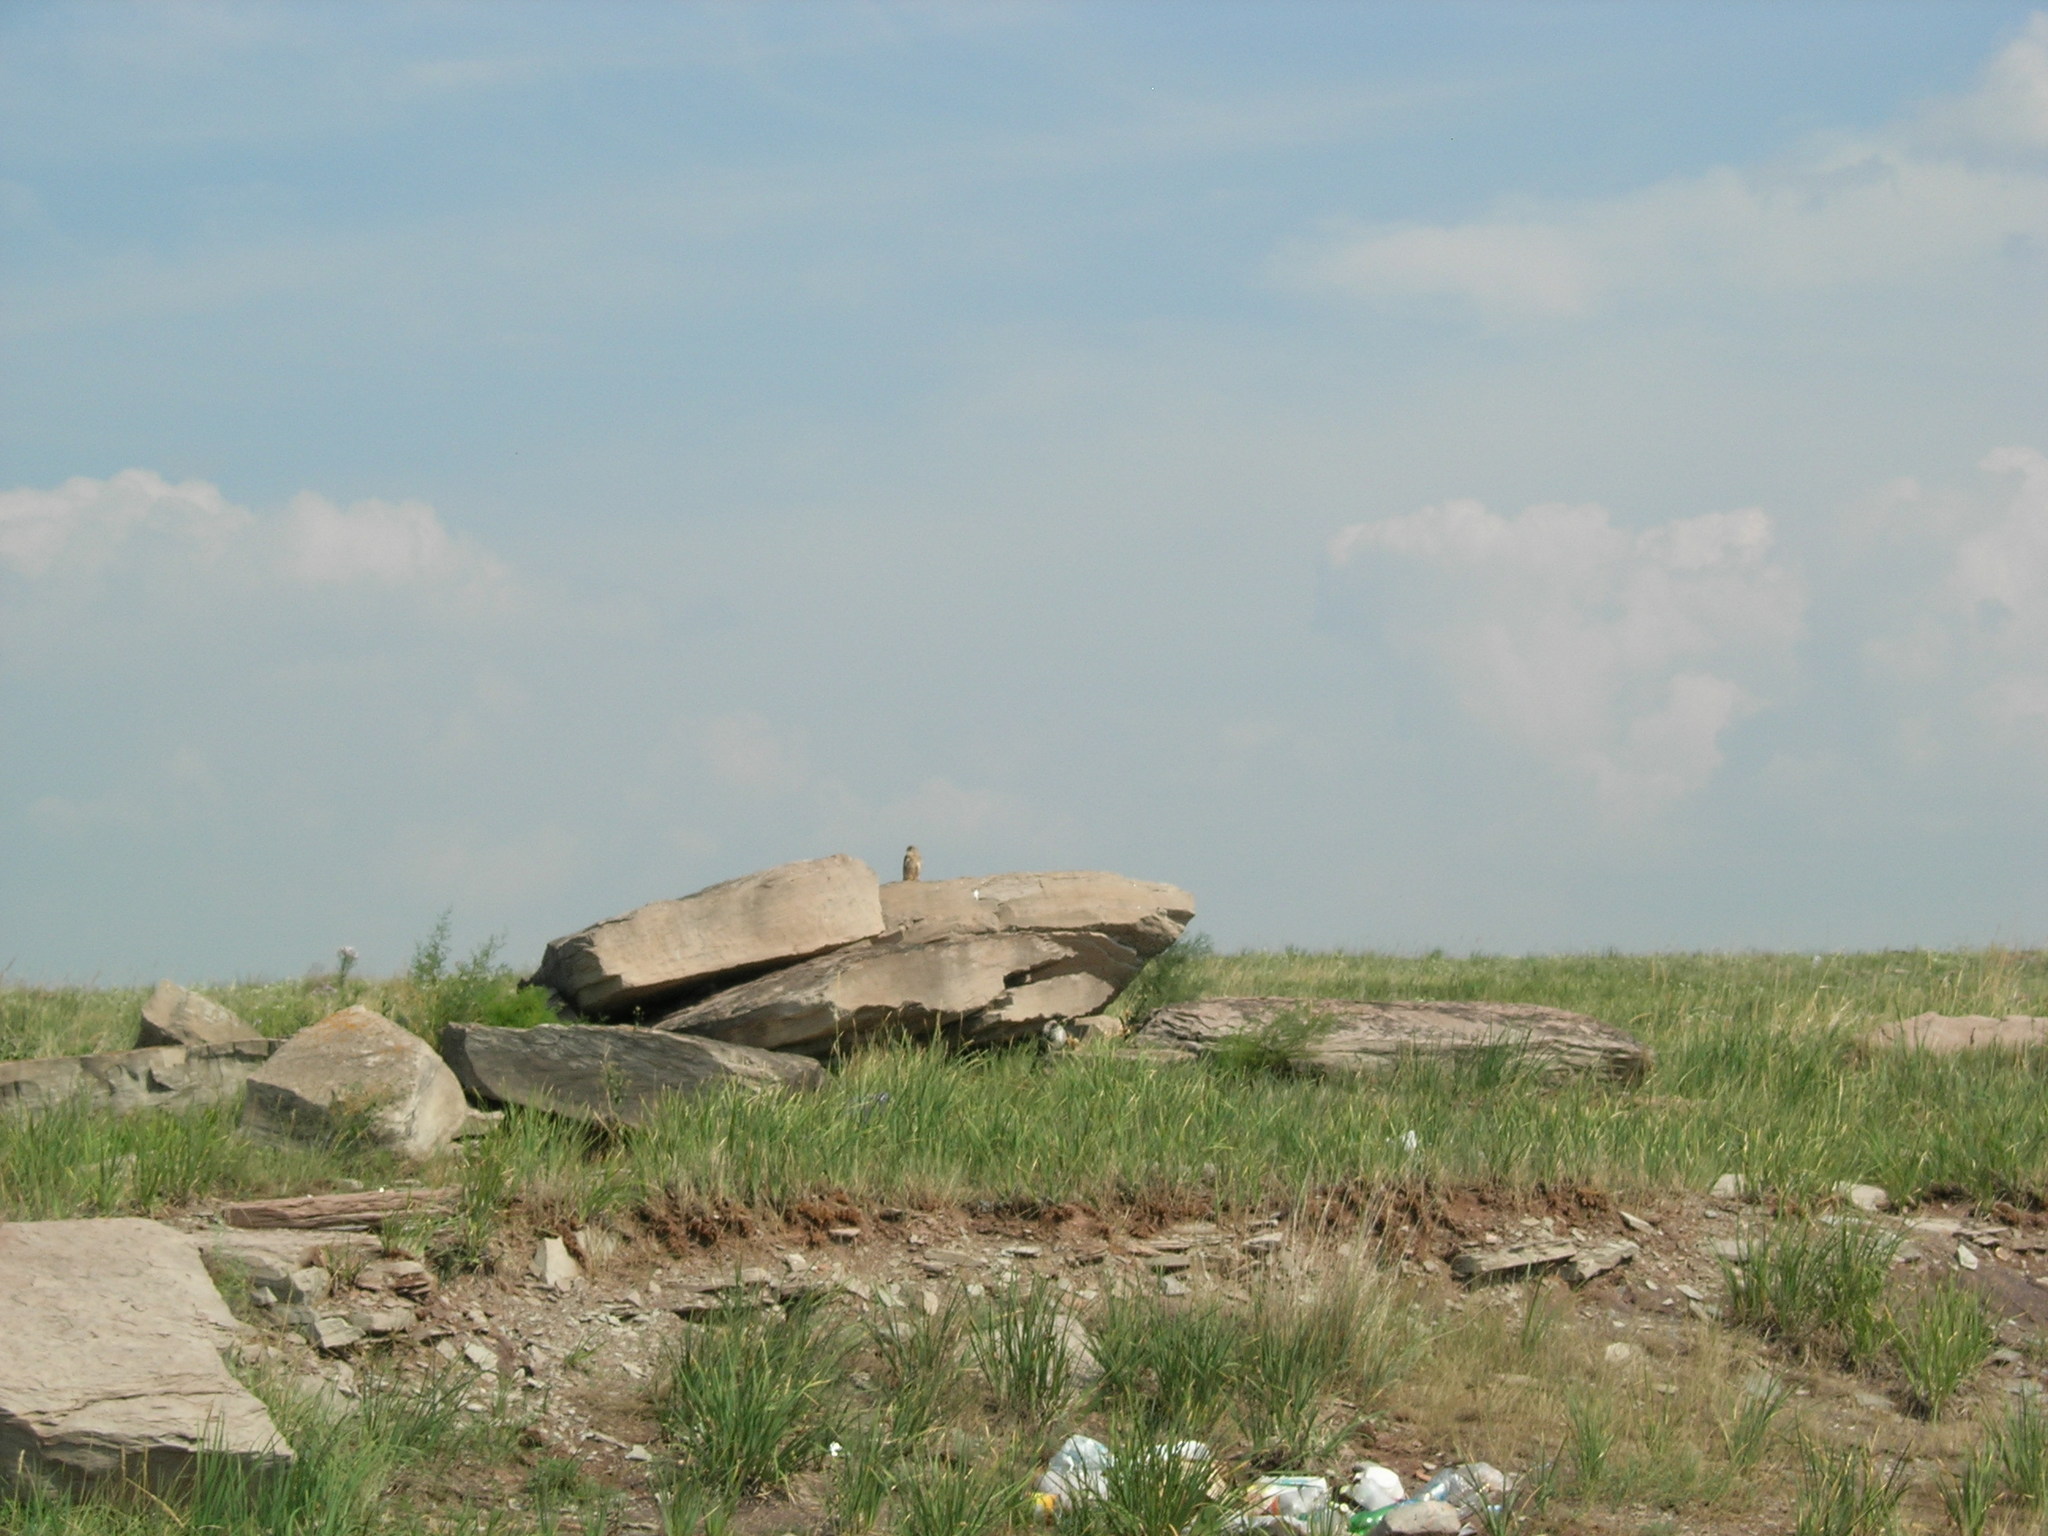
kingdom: Animalia
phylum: Chordata
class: Mammalia
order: Rodentia
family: Sciuridae
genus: Urocitellus
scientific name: Urocitellus undulatus
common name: Long-tailed ground squirrel
